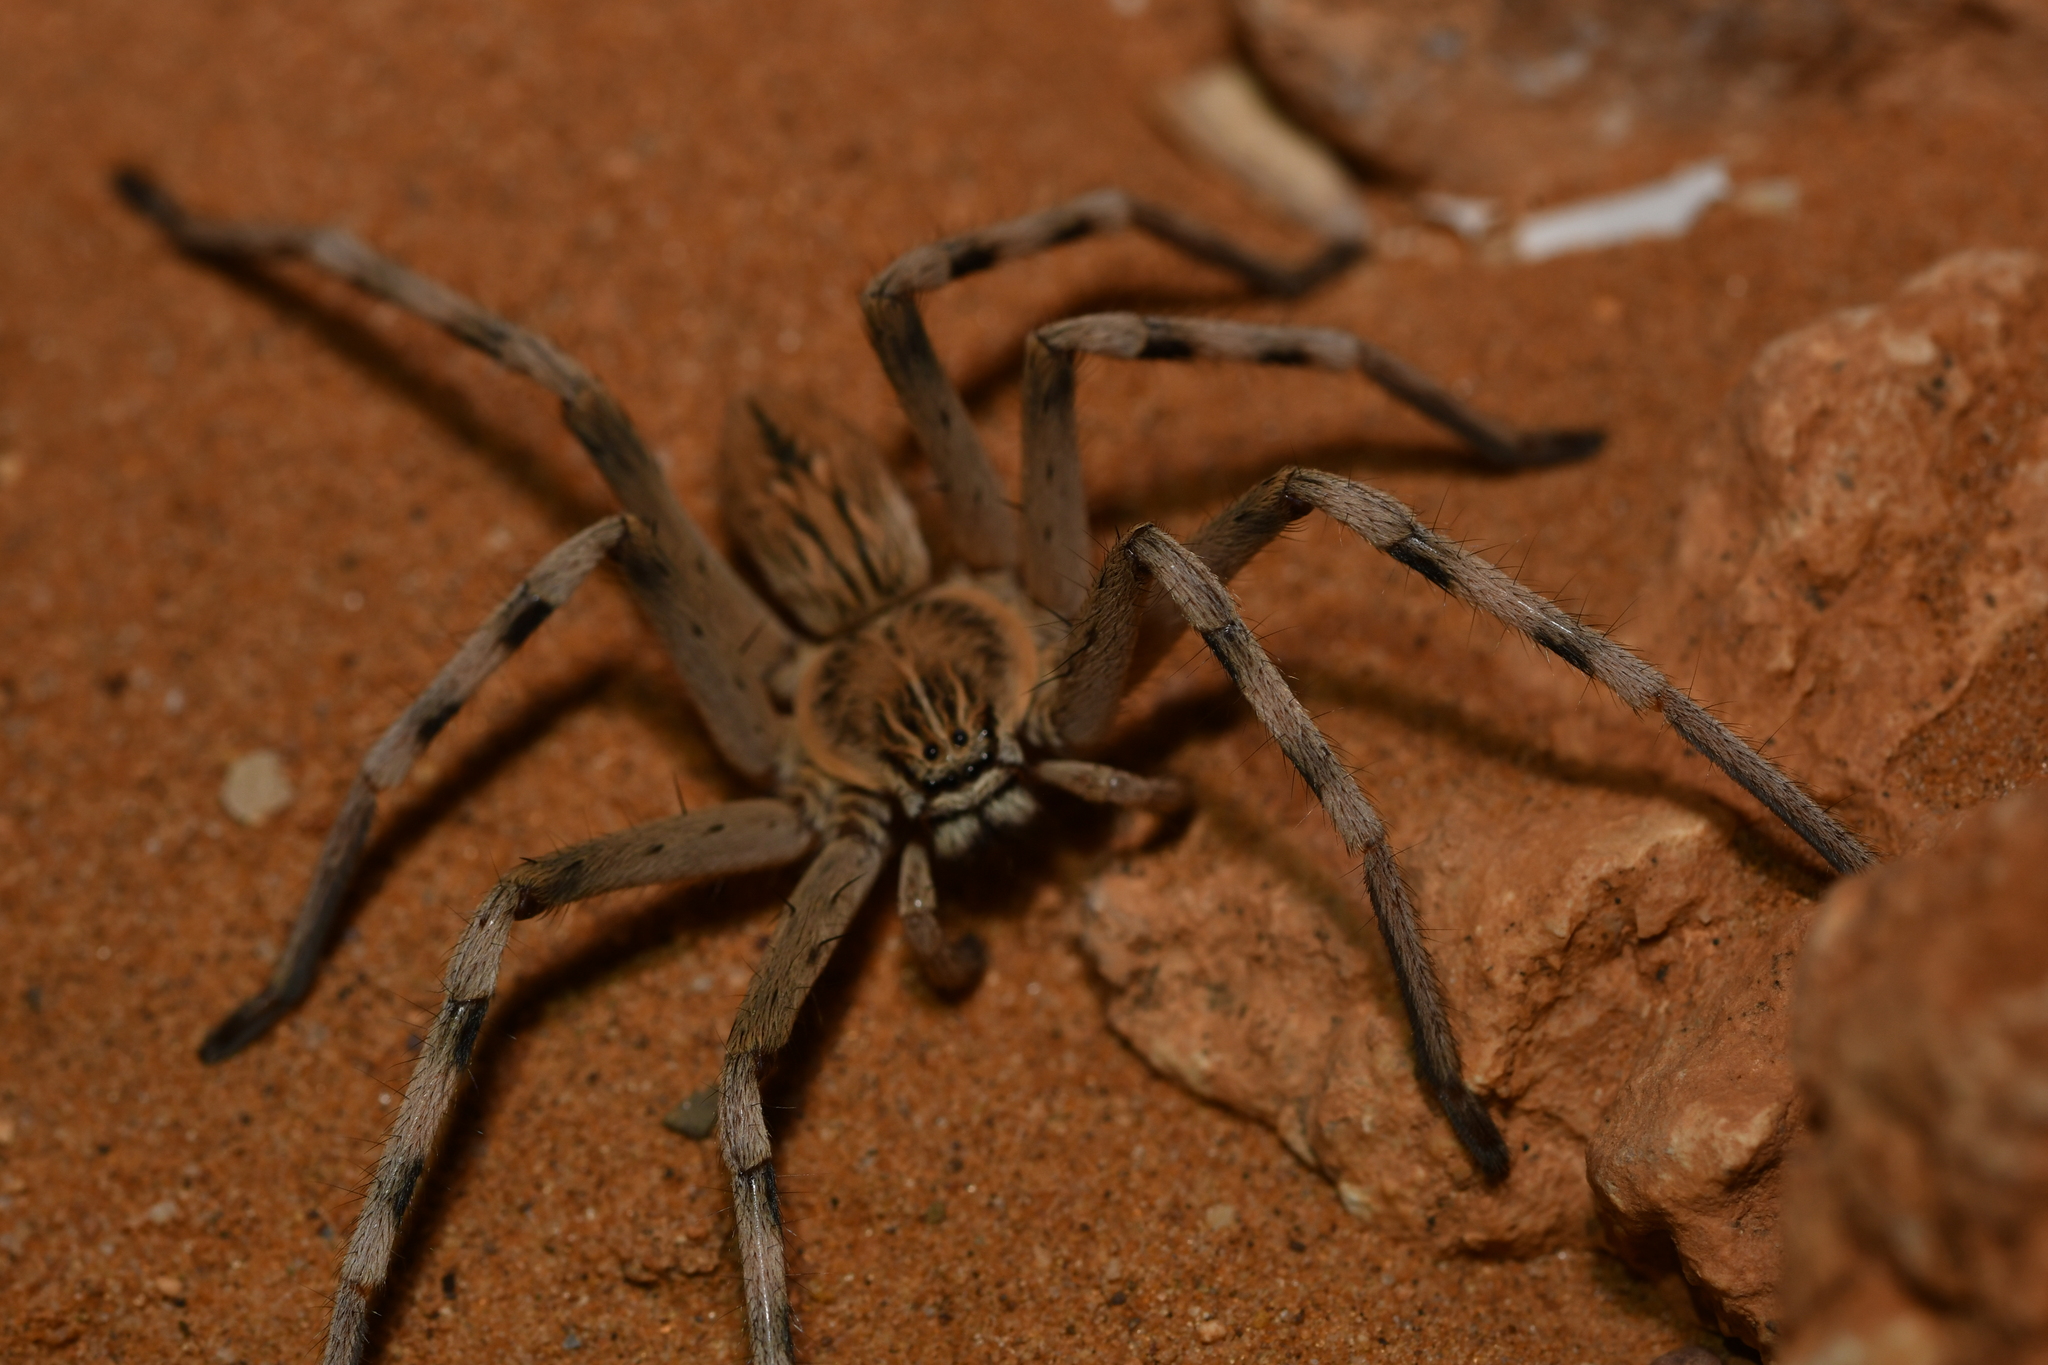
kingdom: Animalia
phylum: Arthropoda
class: Arachnida
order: Araneae
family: Sparassidae
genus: Eusparassus
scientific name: Eusparassus oraniensis
